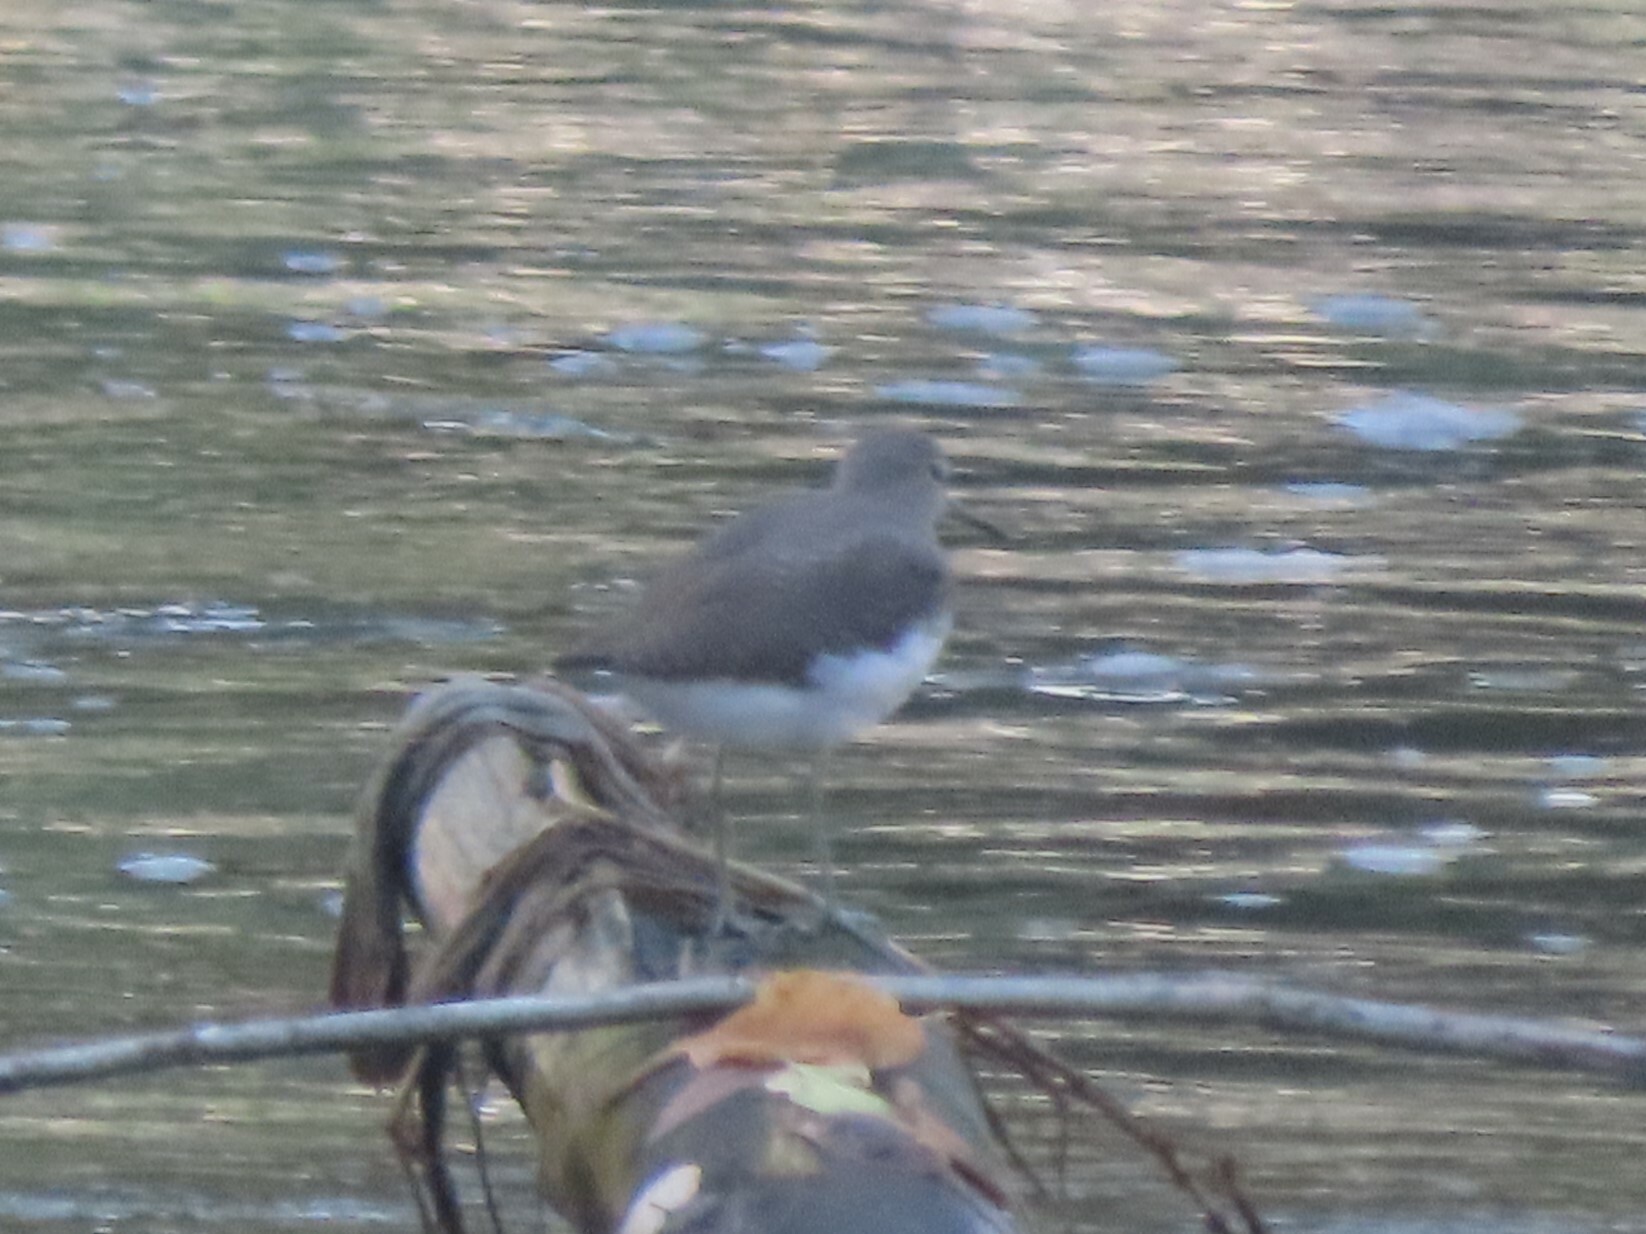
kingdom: Animalia
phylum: Chordata
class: Aves
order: Charadriiformes
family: Scolopacidae
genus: Tringa
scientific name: Tringa ochropus
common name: Green sandpiper
